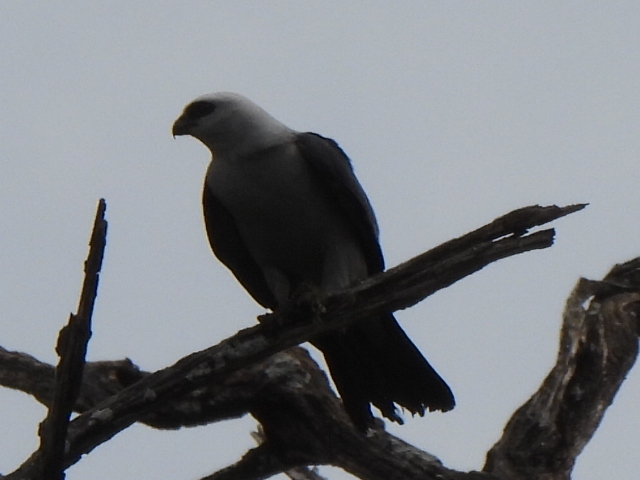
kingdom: Animalia
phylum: Chordata
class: Aves
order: Accipitriformes
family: Accipitridae
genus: Ictinia
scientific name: Ictinia mississippiensis
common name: Mississippi kite
